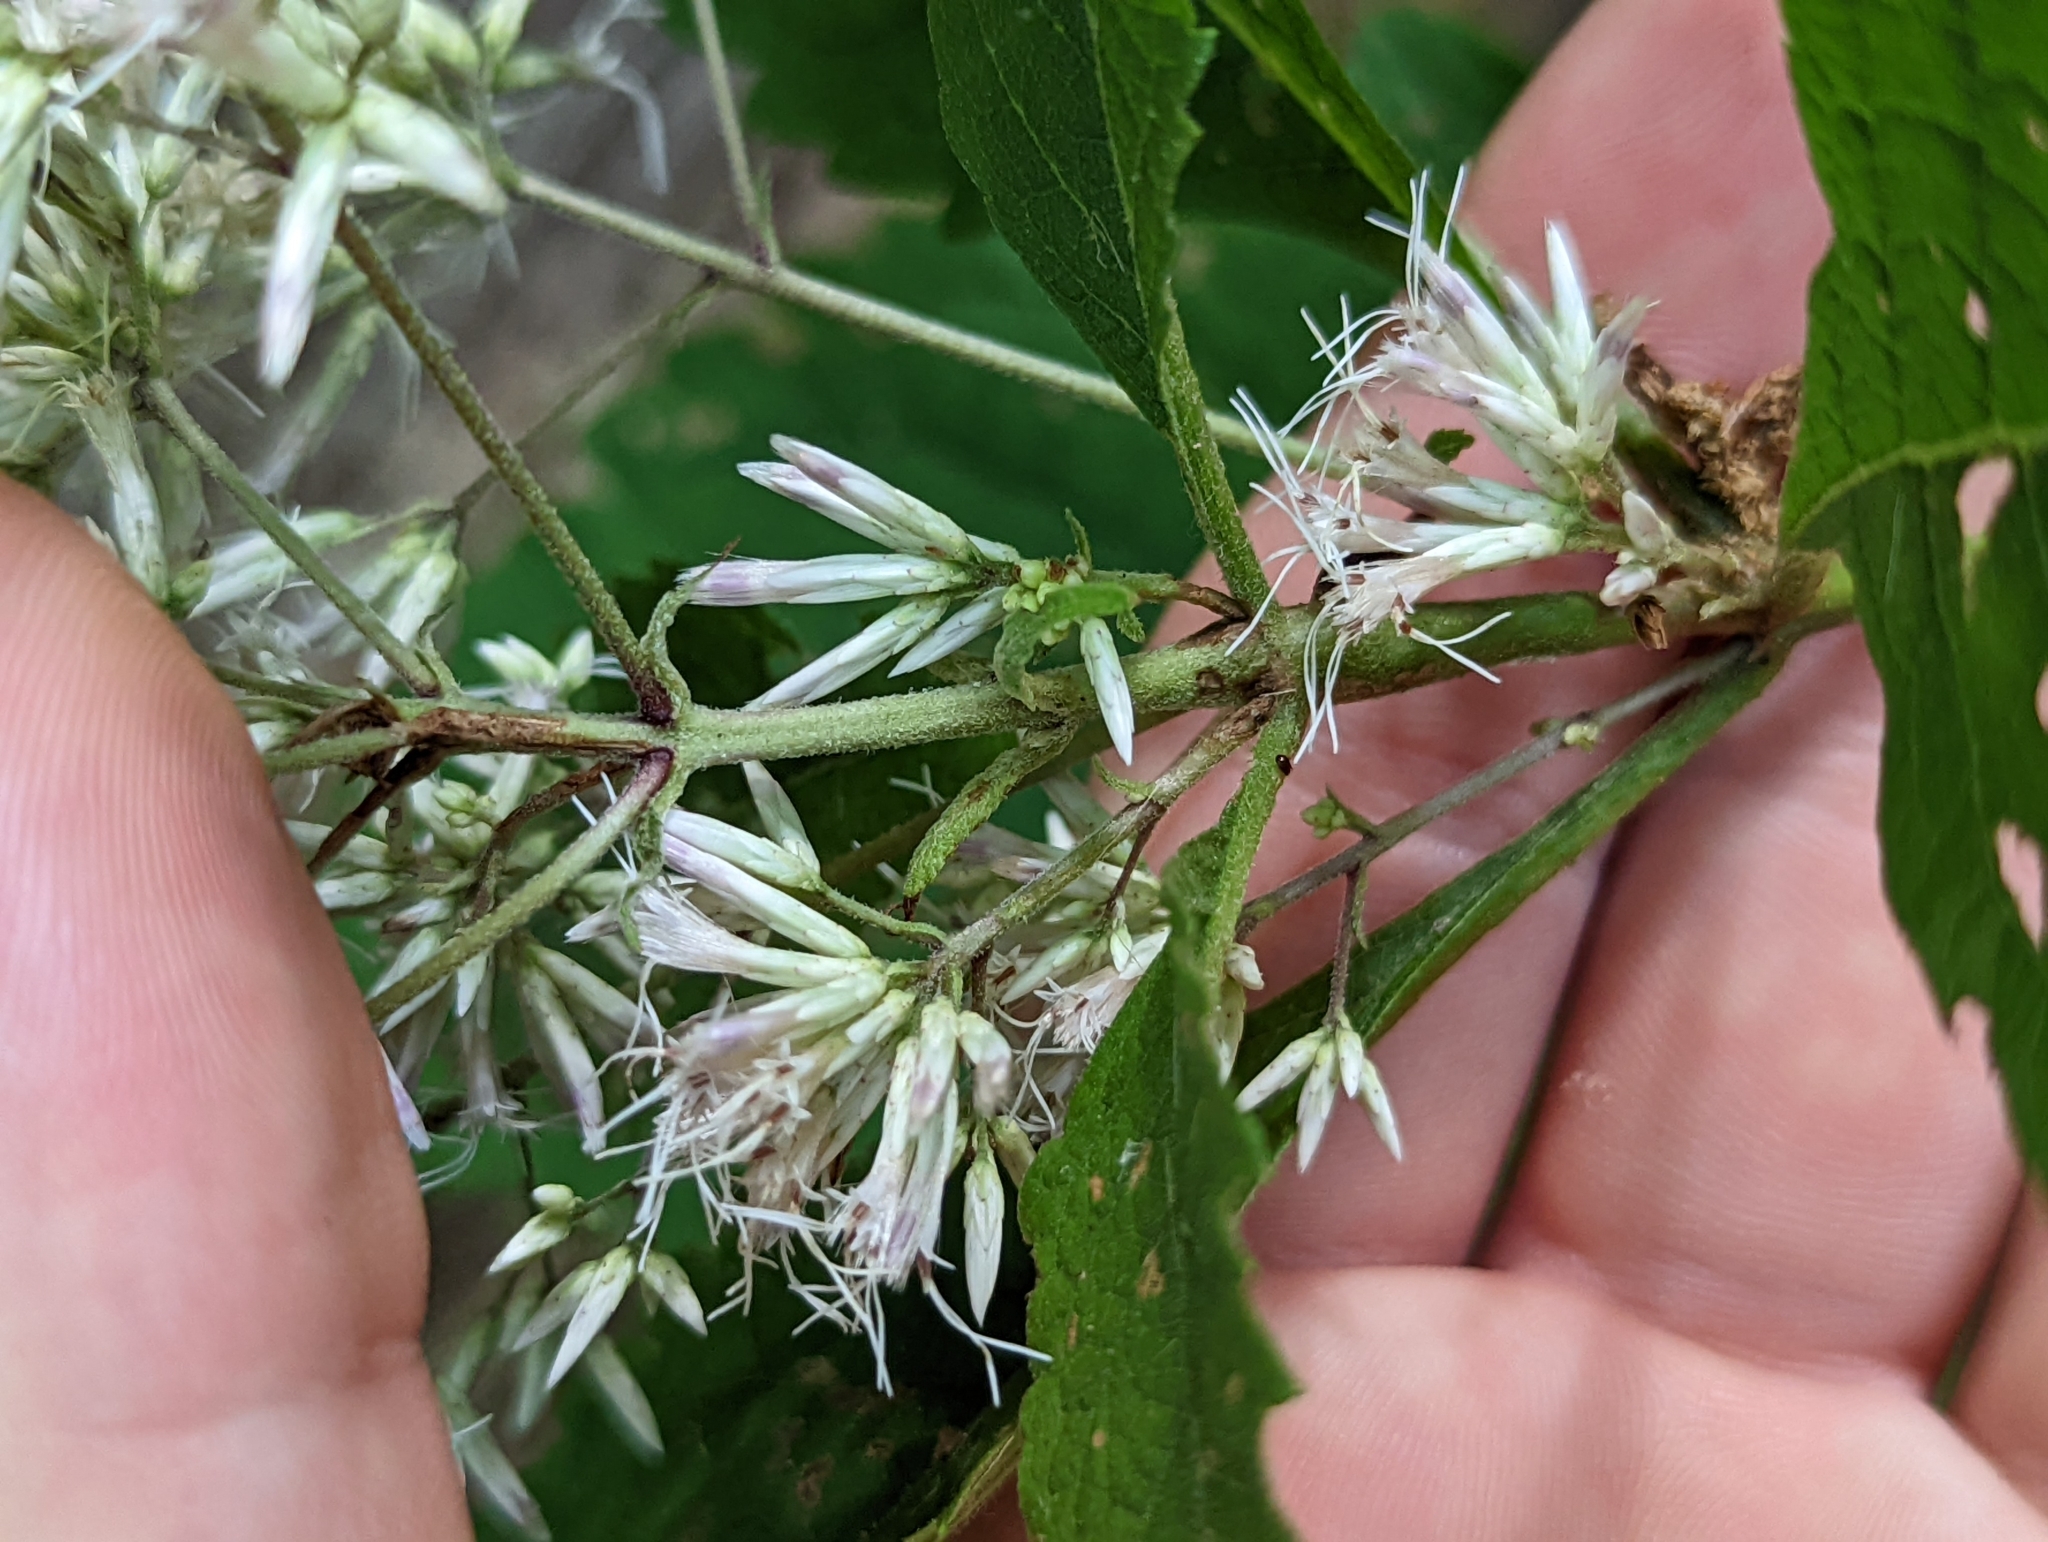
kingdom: Plantae
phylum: Tracheophyta
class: Magnoliopsida
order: Asterales
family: Asteraceae
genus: Eutrochium
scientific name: Eutrochium purpureum
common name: Gravelroot
